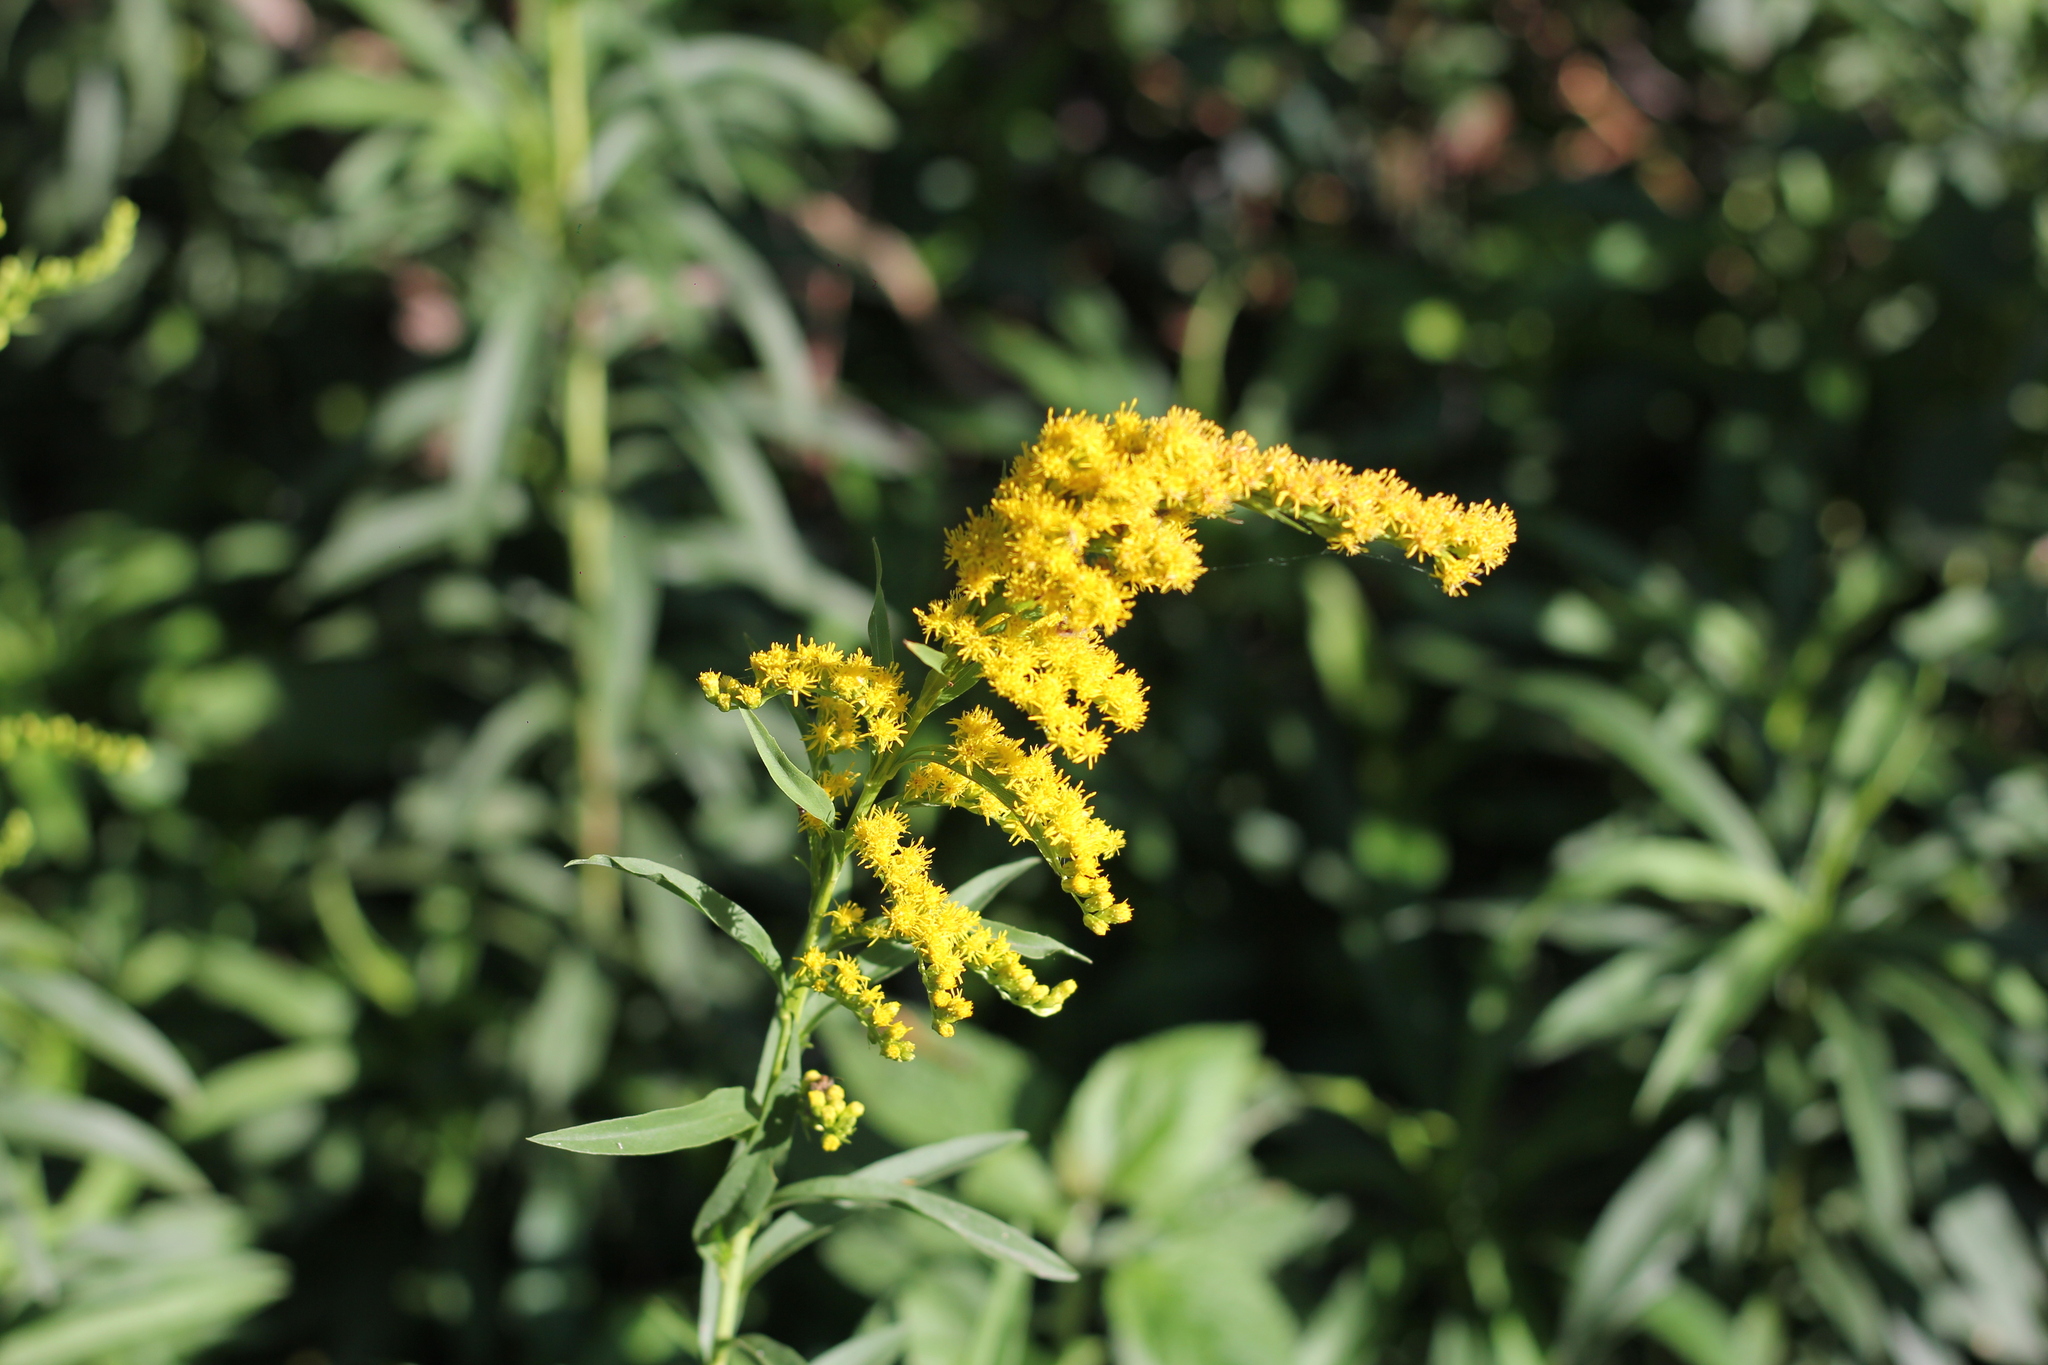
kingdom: Plantae
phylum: Tracheophyta
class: Magnoliopsida
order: Asterales
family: Asteraceae
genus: Solidago
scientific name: Solidago chilensis
